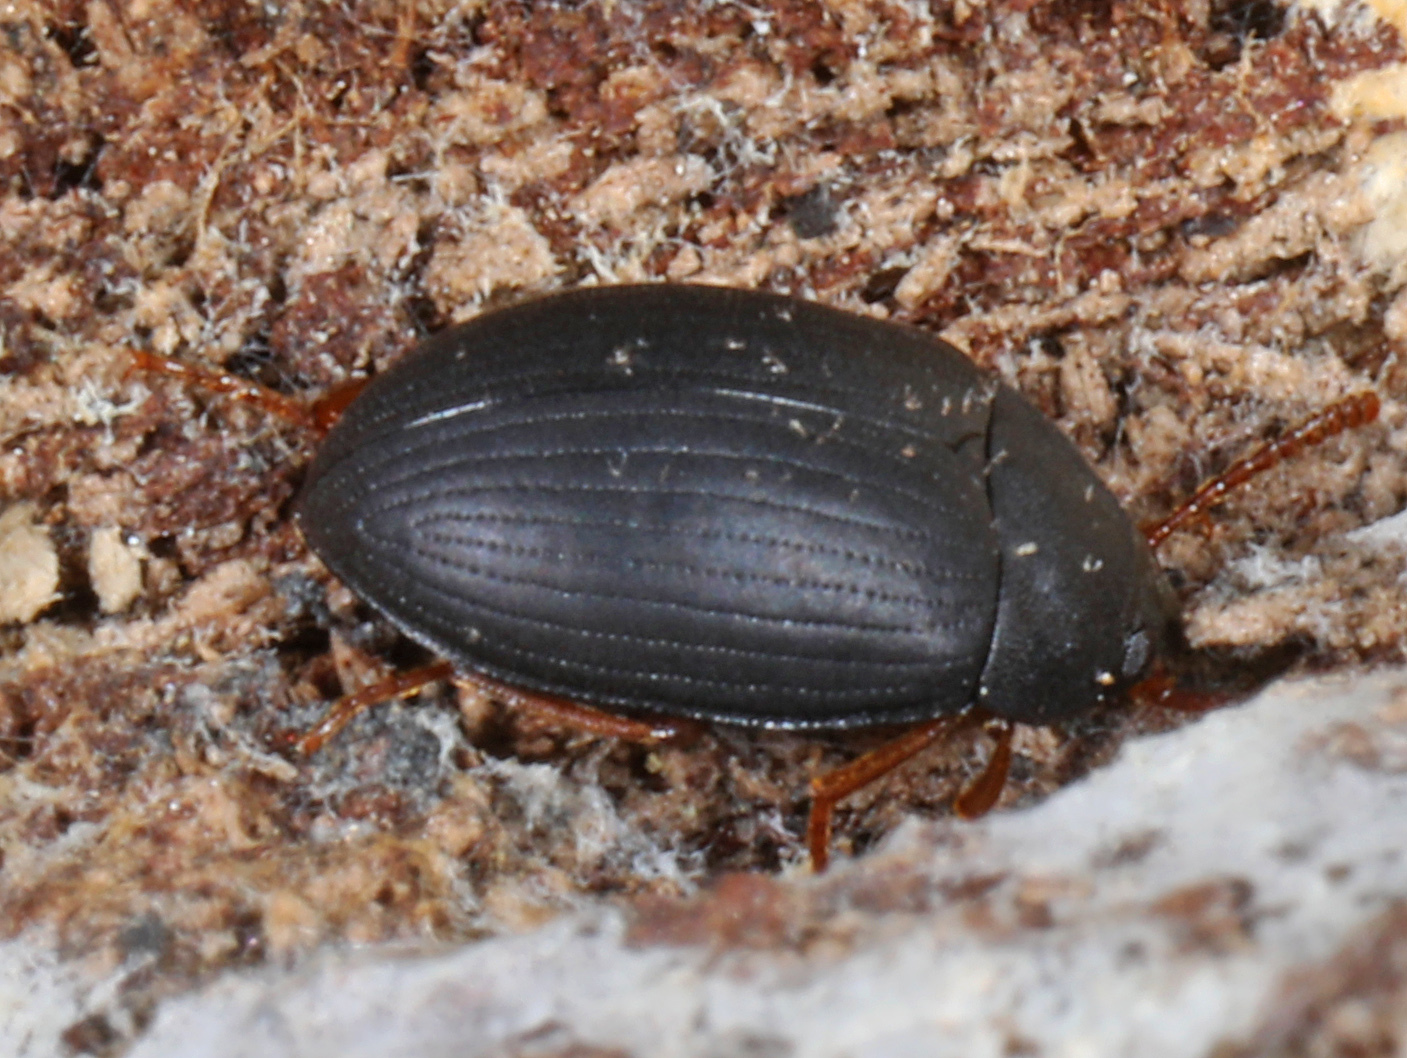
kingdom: Animalia
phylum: Arthropoda
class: Insecta
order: Coleoptera
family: Tenebrionidae
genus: Platydema
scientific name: Platydema ruficornis
